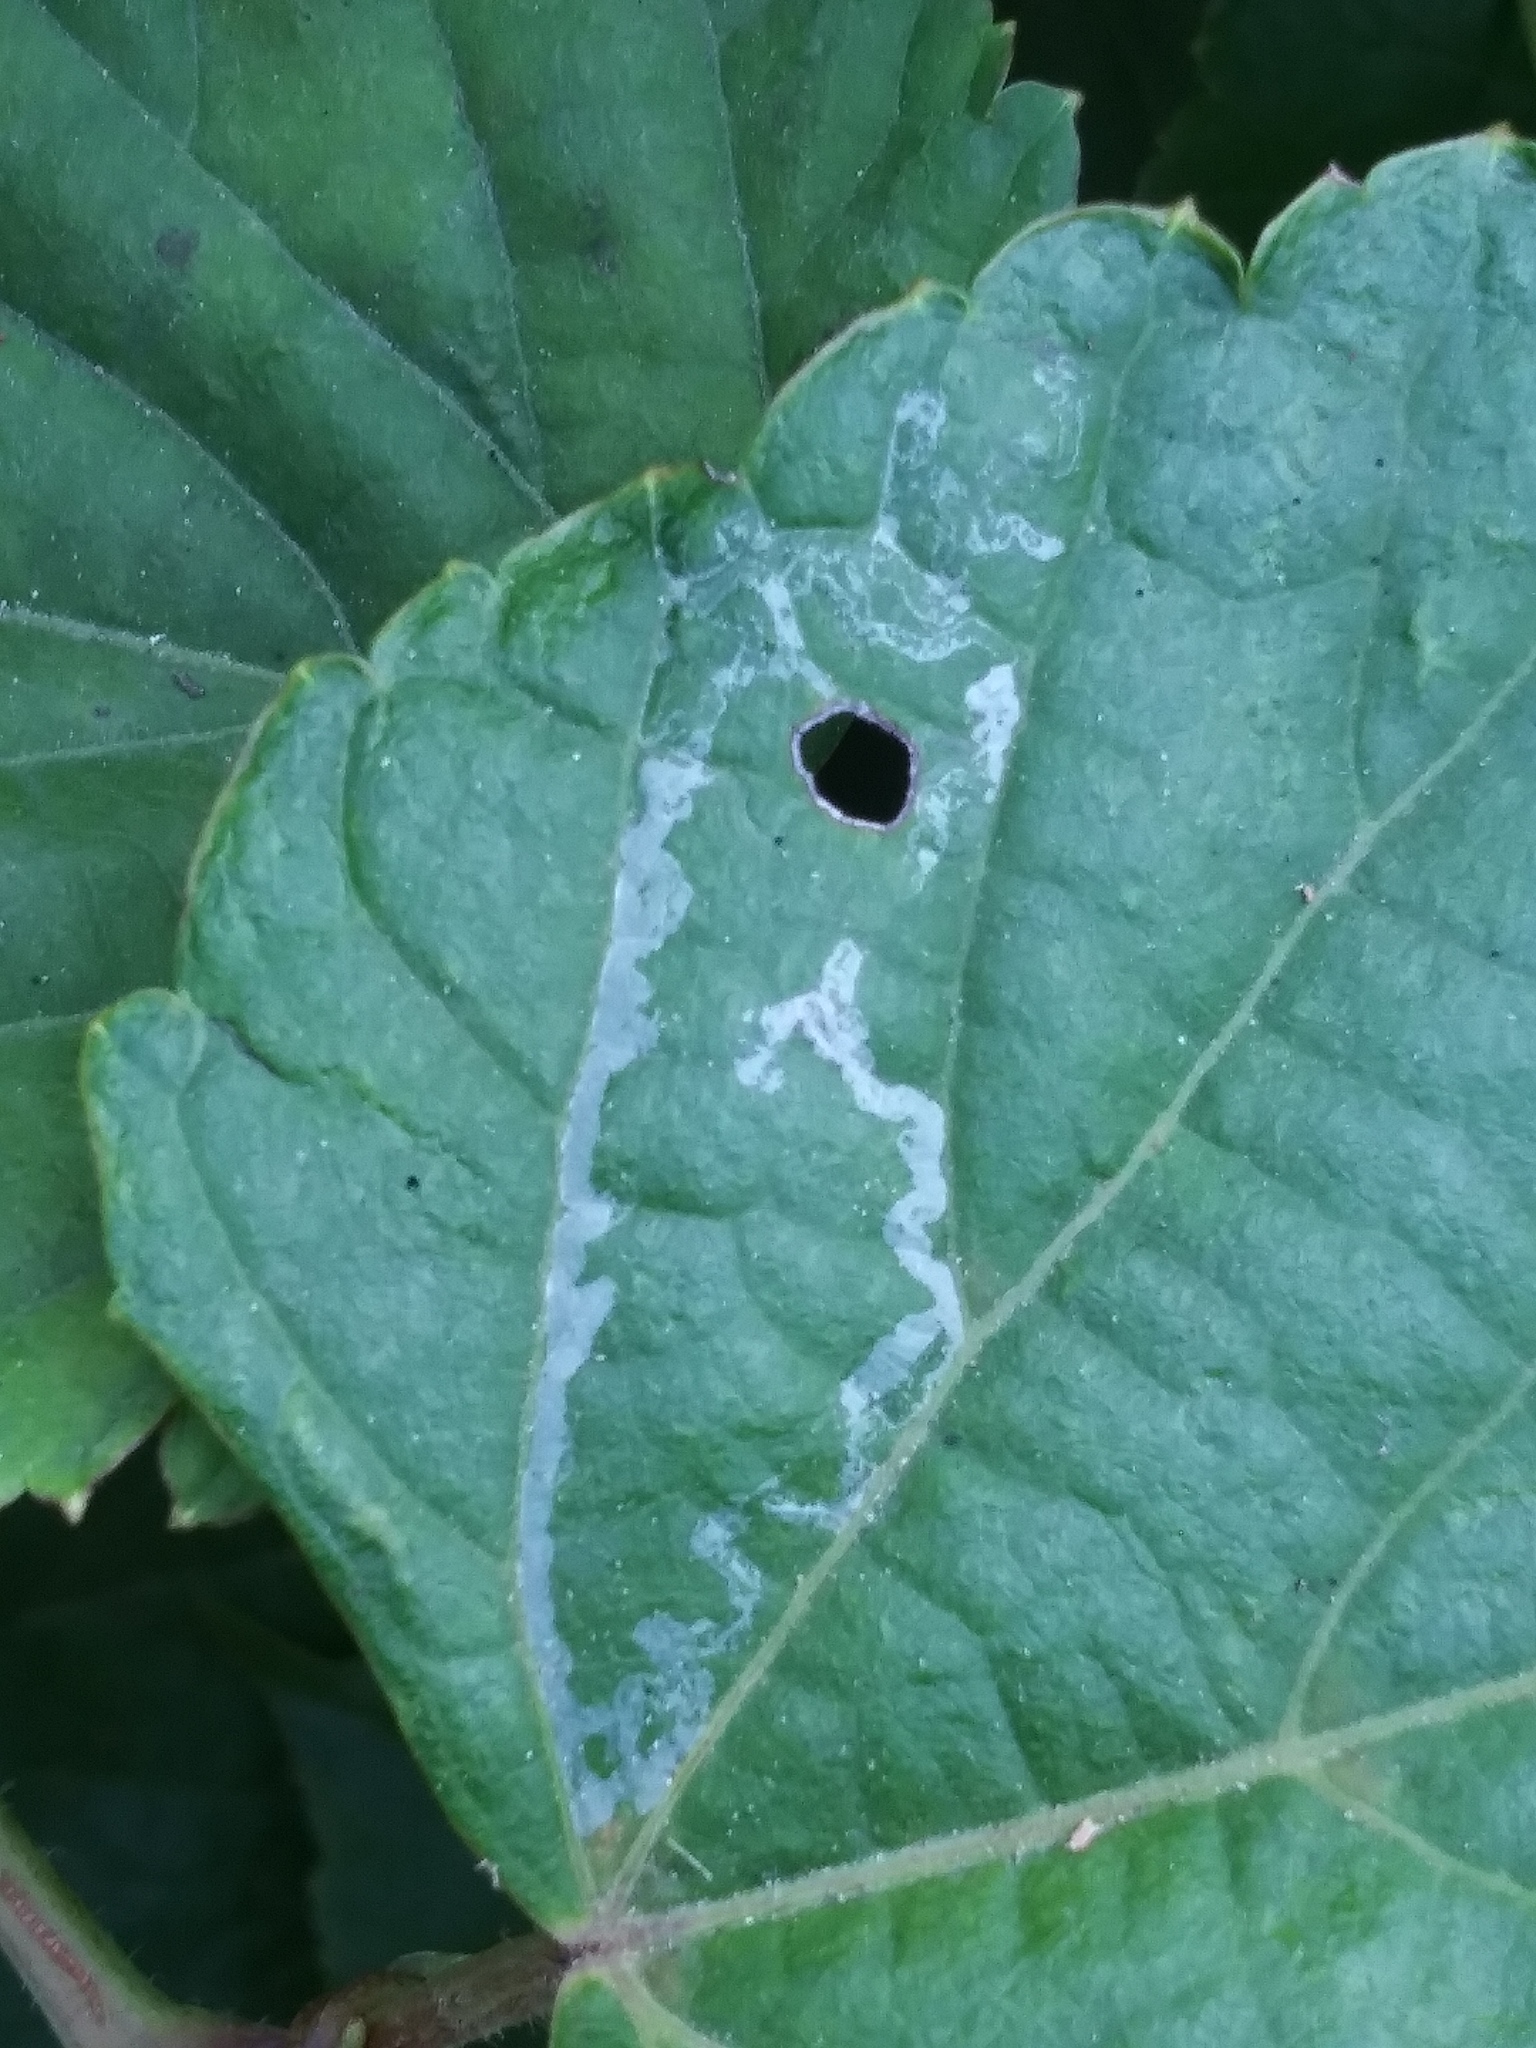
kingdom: Animalia
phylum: Arthropoda
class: Insecta
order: Lepidoptera
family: Gracillariidae
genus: Phyllocnistis
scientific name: Phyllocnistis vitegenella
